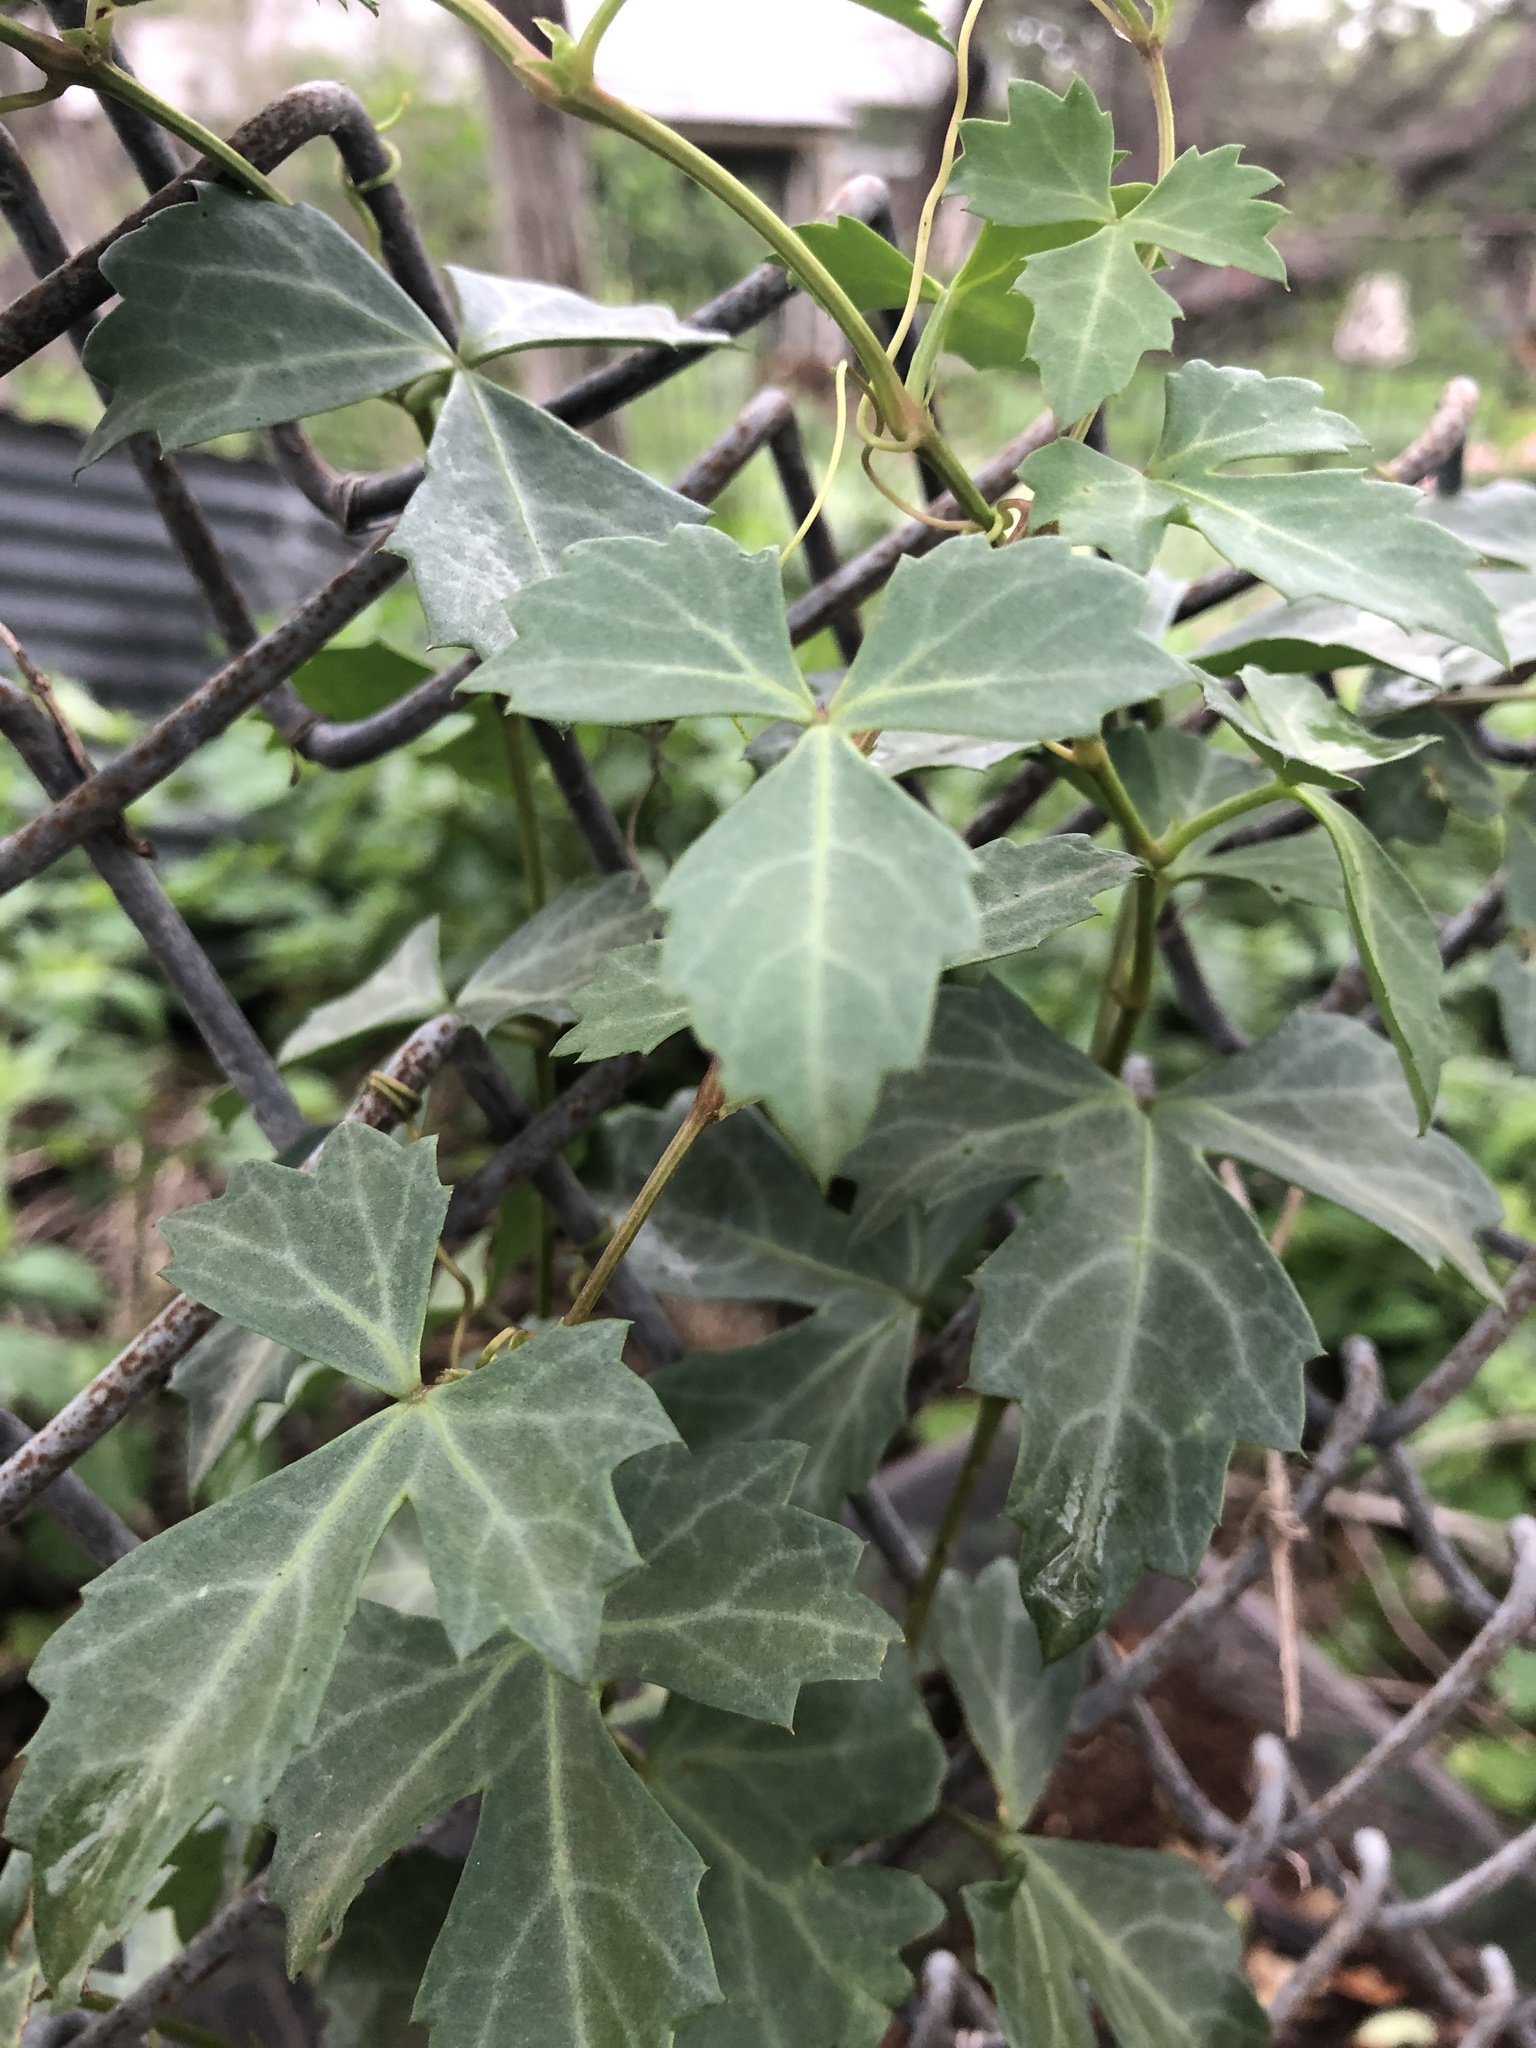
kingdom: Plantae
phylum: Tracheophyta
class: Magnoliopsida
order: Vitales
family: Vitaceae
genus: Cissus
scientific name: Cissus trifoliata
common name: Vine-sorrel
